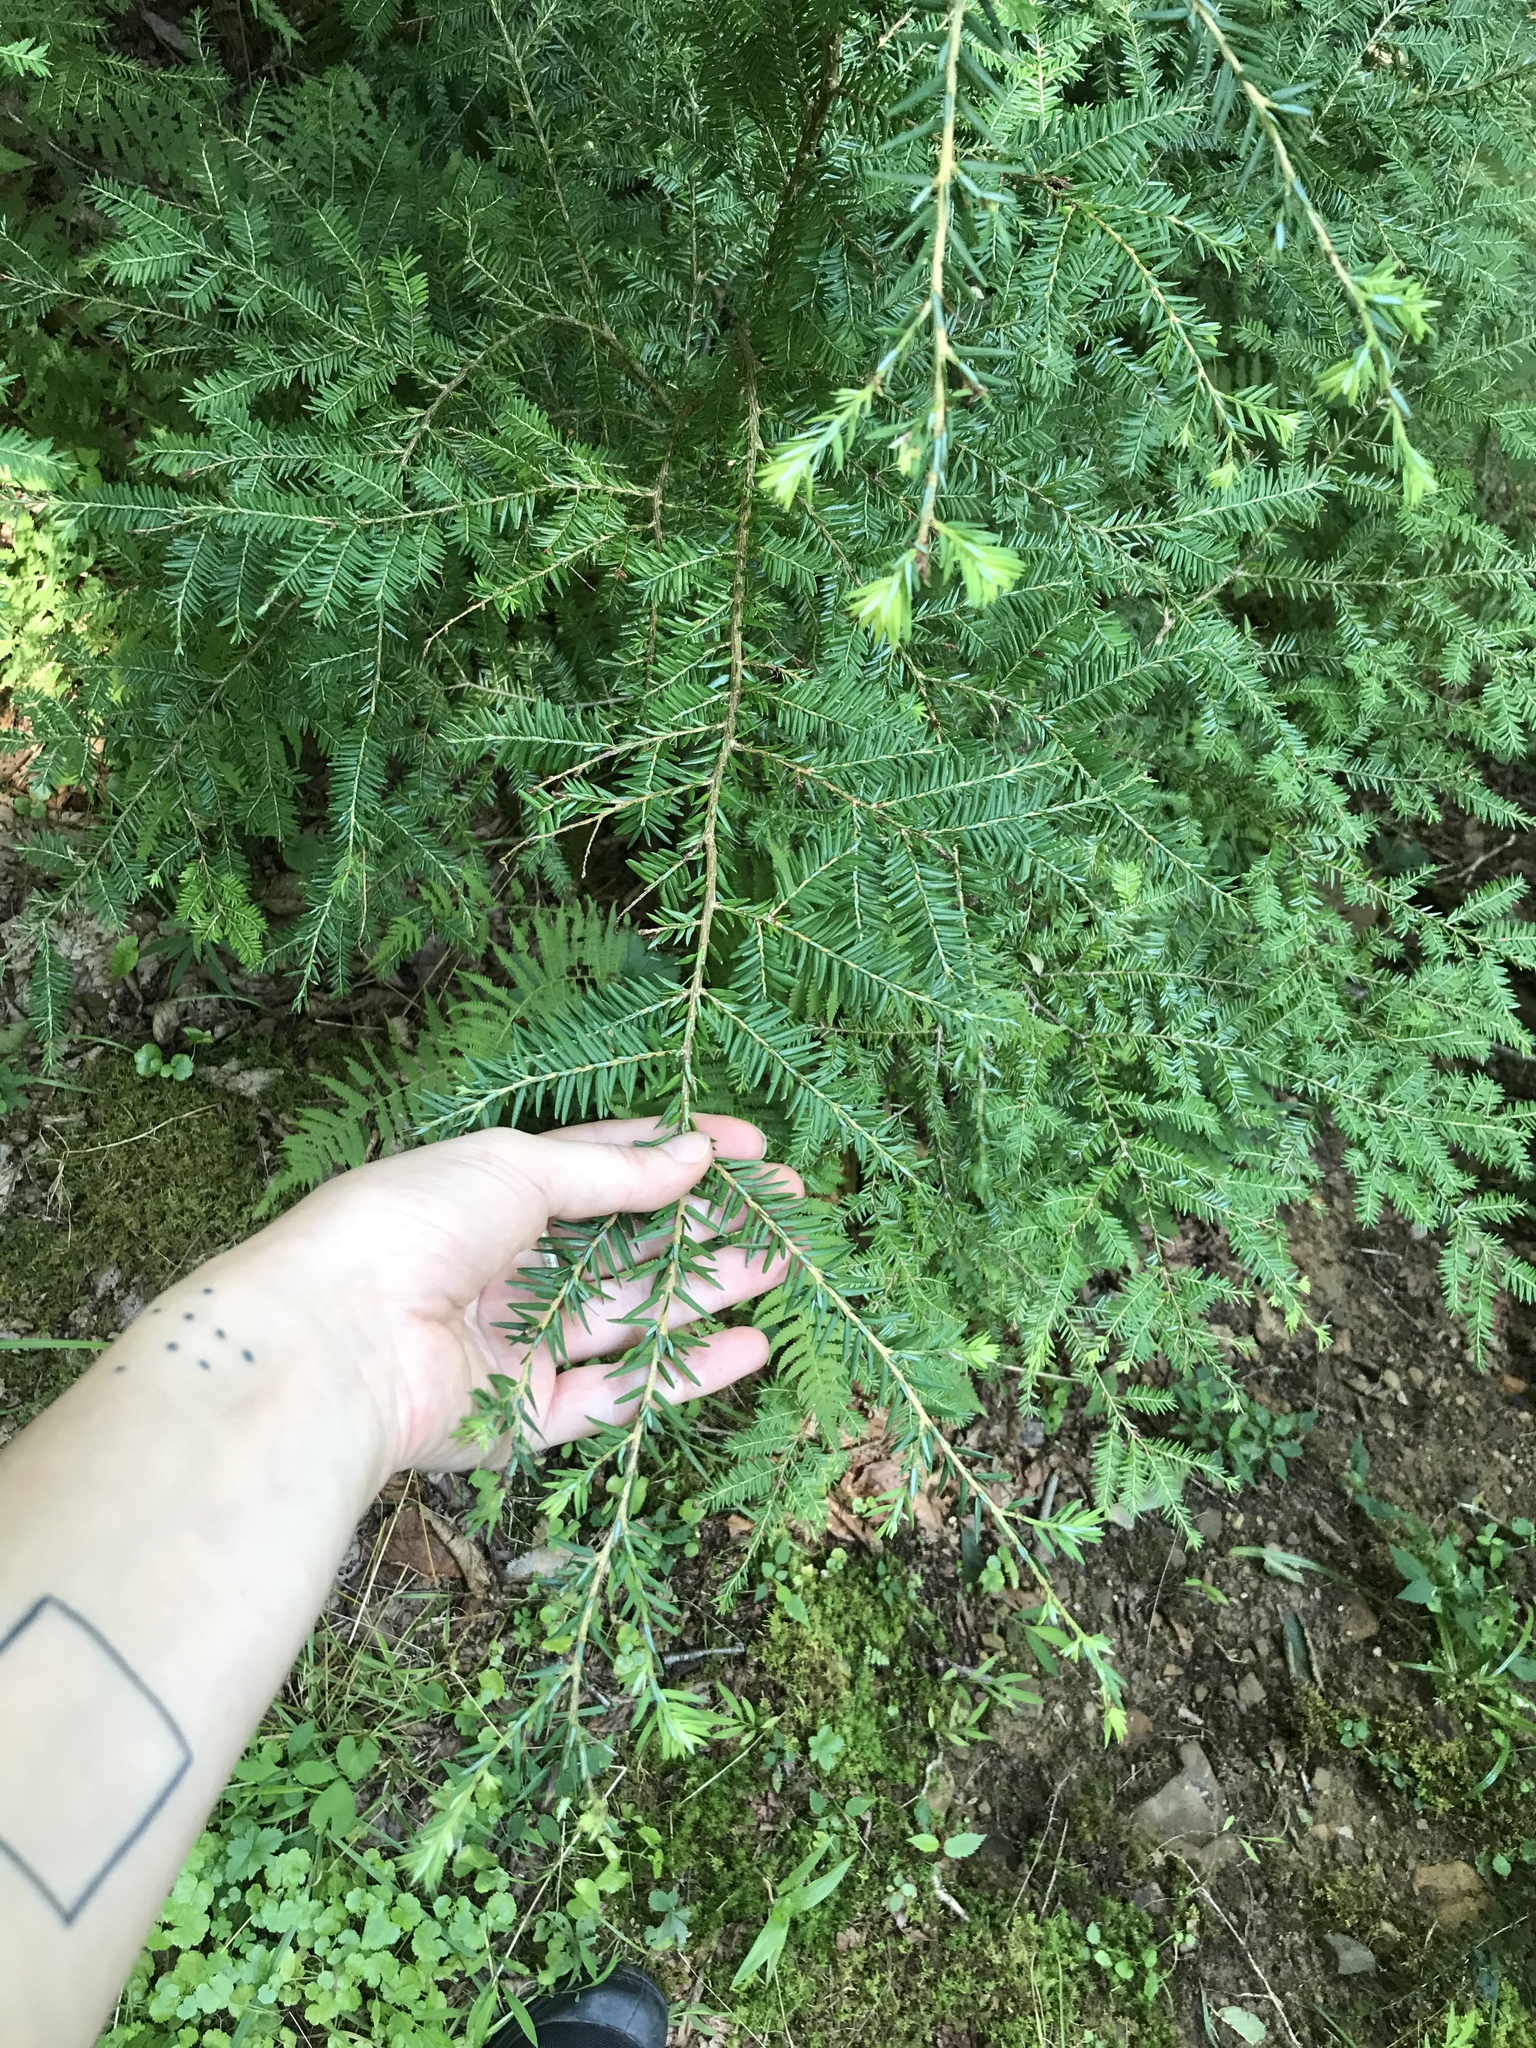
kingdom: Plantae
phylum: Tracheophyta
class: Pinopsida
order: Pinales
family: Pinaceae
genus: Tsuga
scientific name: Tsuga canadensis
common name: Eastern hemlock
